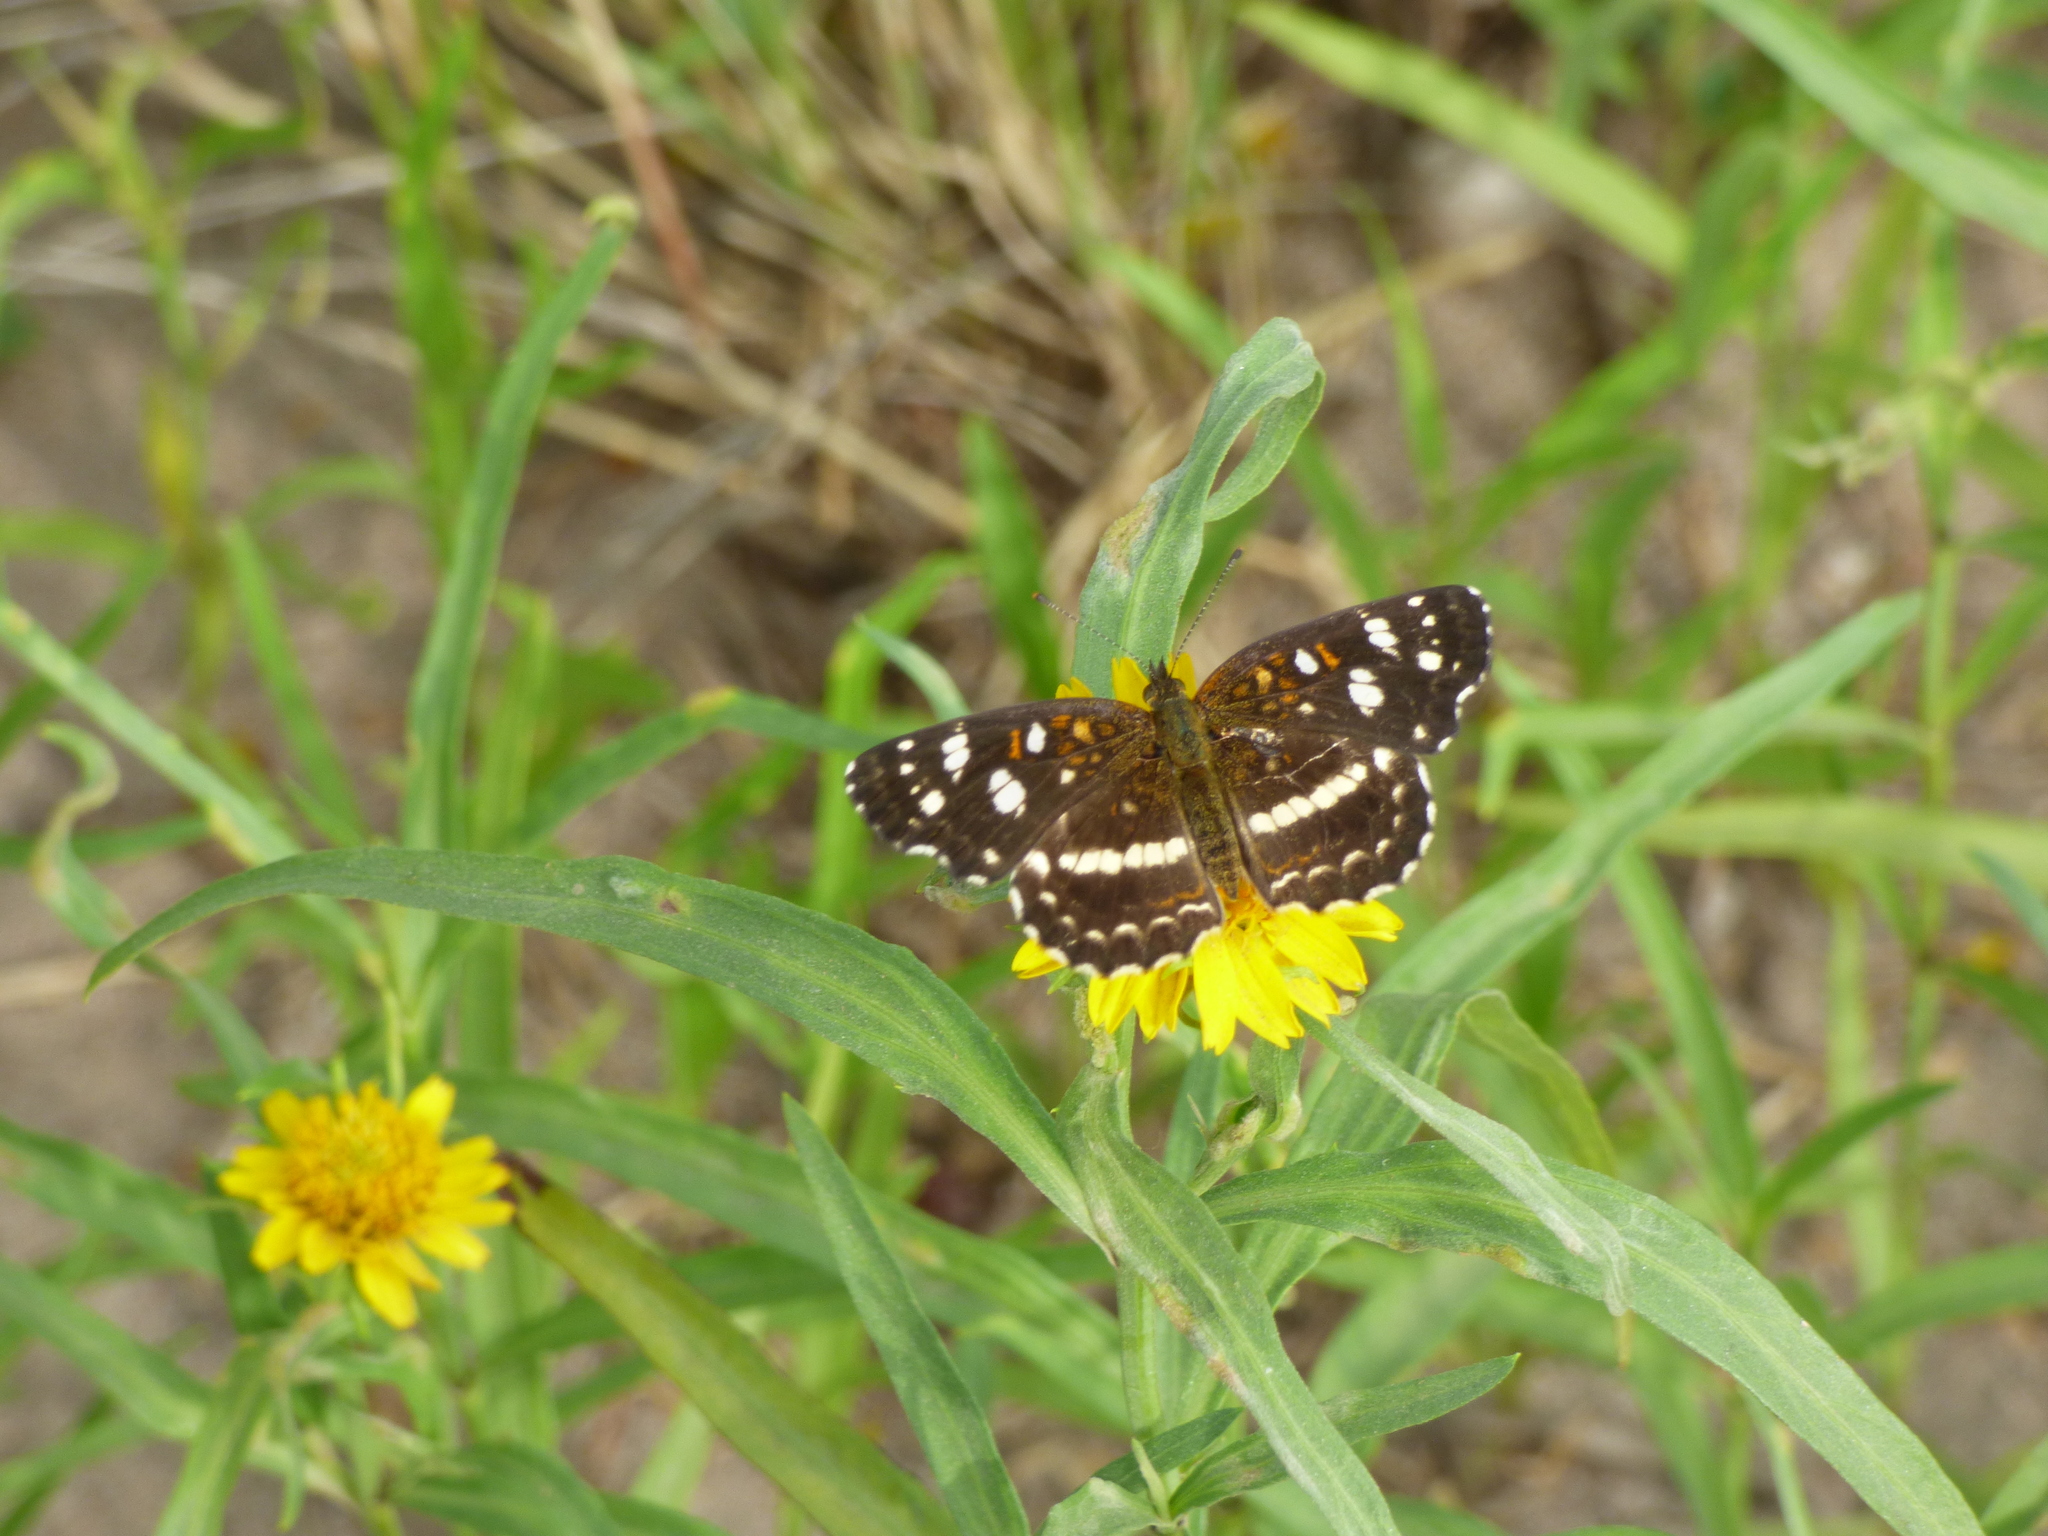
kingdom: Animalia
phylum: Arthropoda
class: Insecta
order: Lepidoptera
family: Nymphalidae
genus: Ortilia
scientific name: Ortilia ithra
